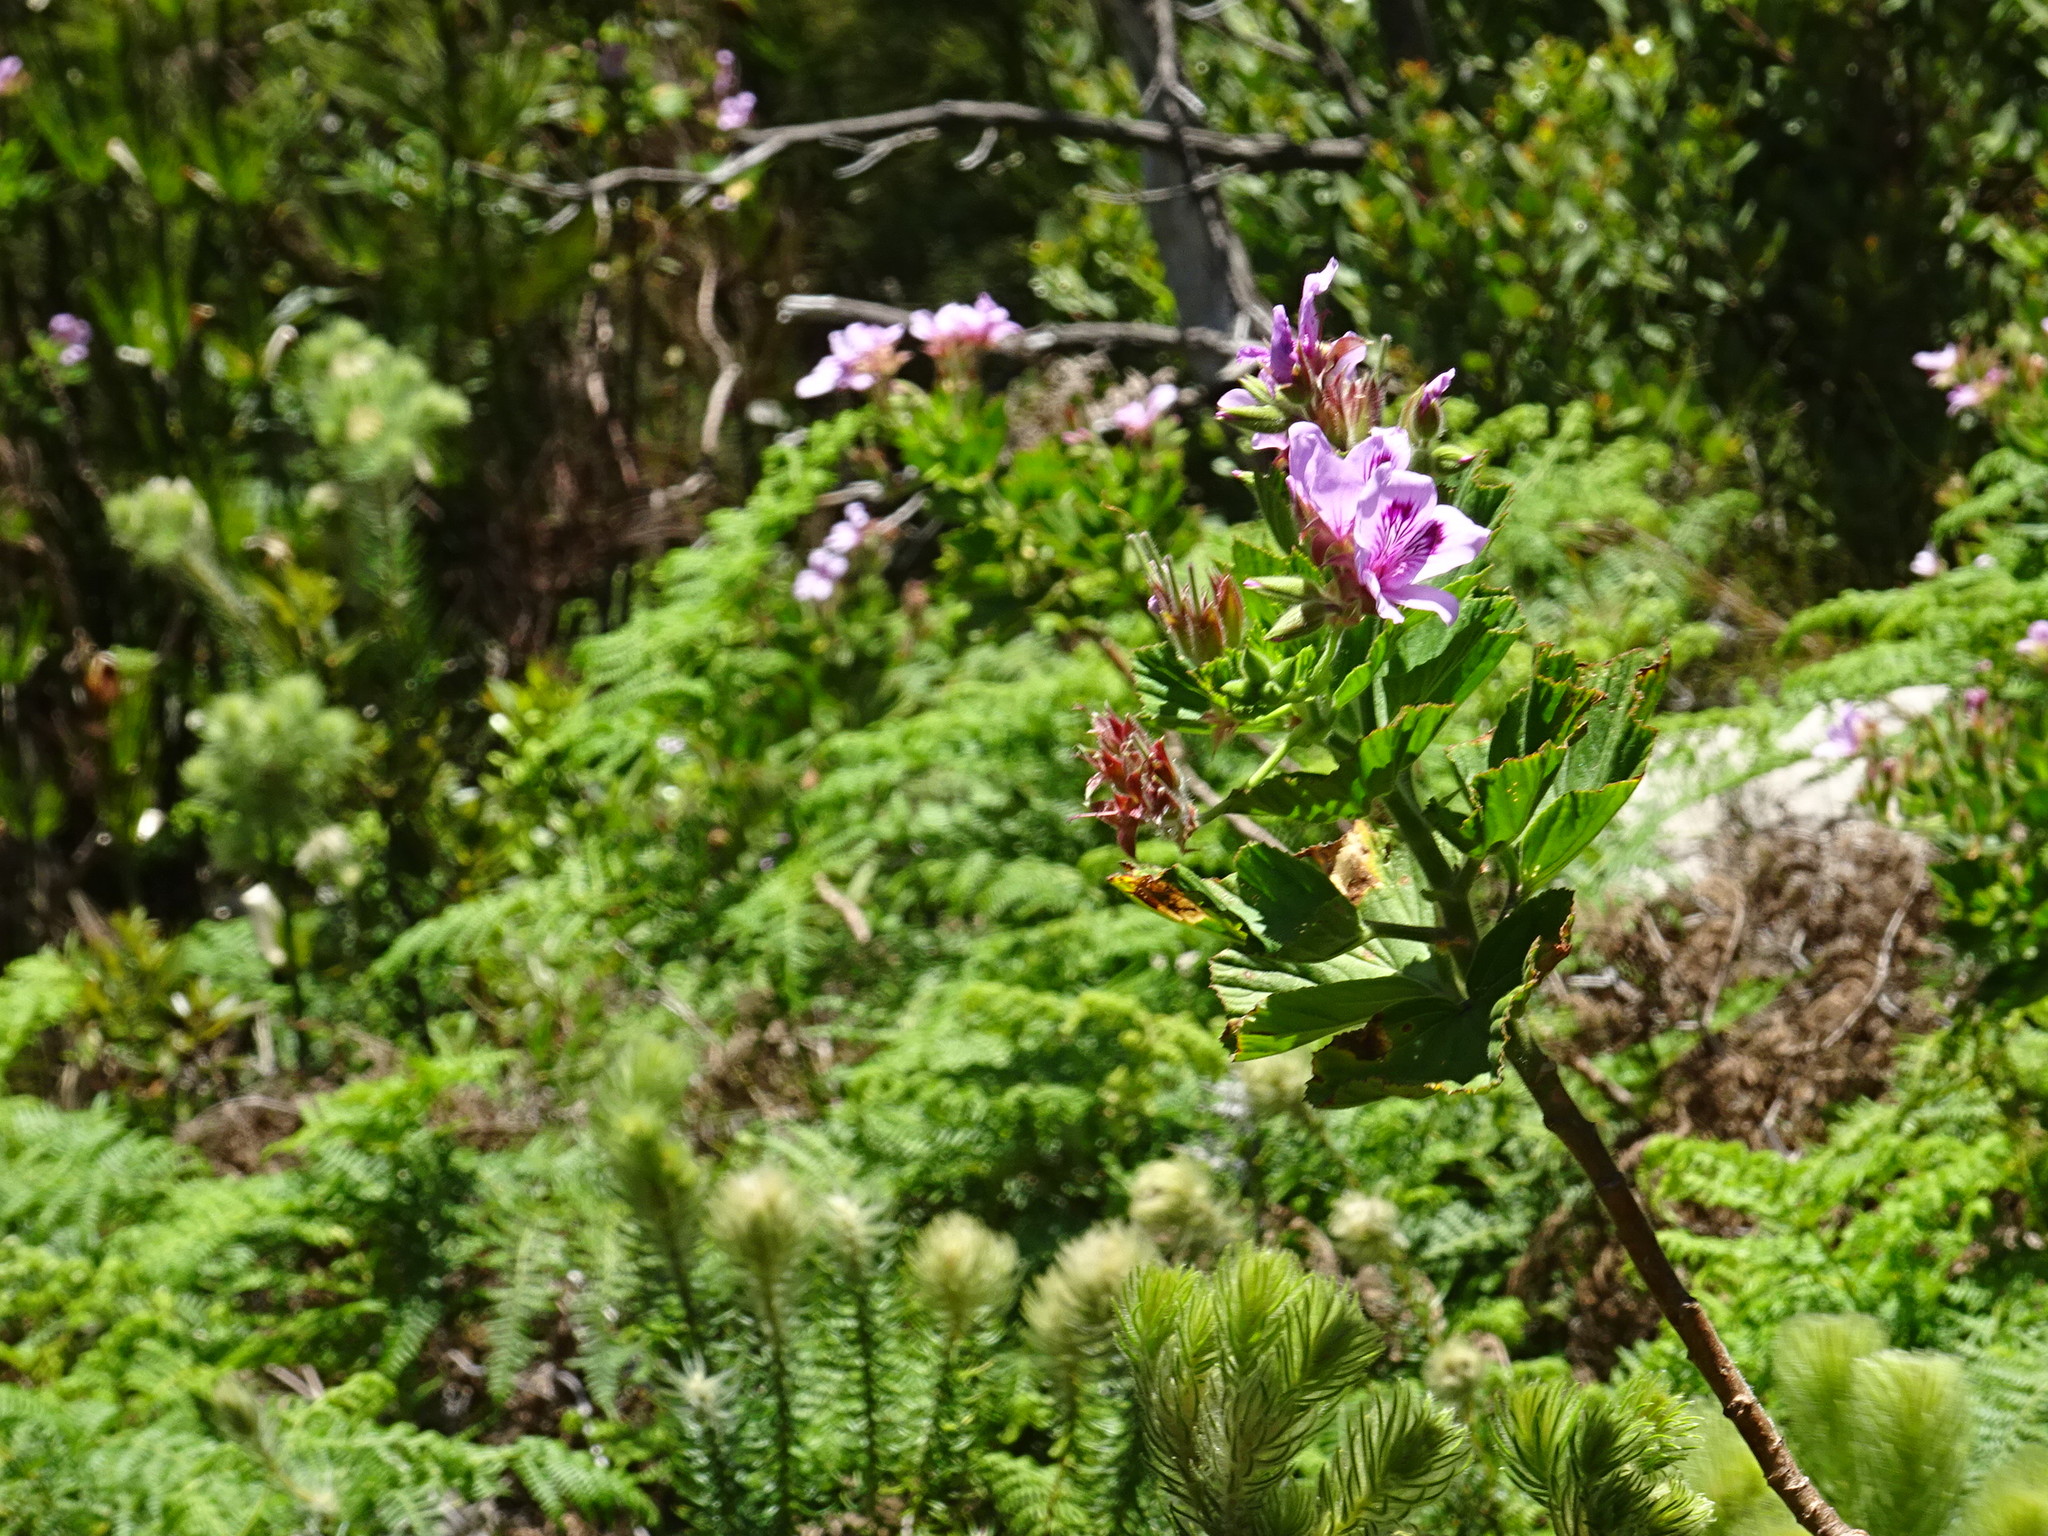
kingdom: Plantae
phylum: Tracheophyta
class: Magnoliopsida
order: Geraniales
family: Geraniaceae
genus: Pelargonium
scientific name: Pelargonium cucullatum
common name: Tree pelargonium
